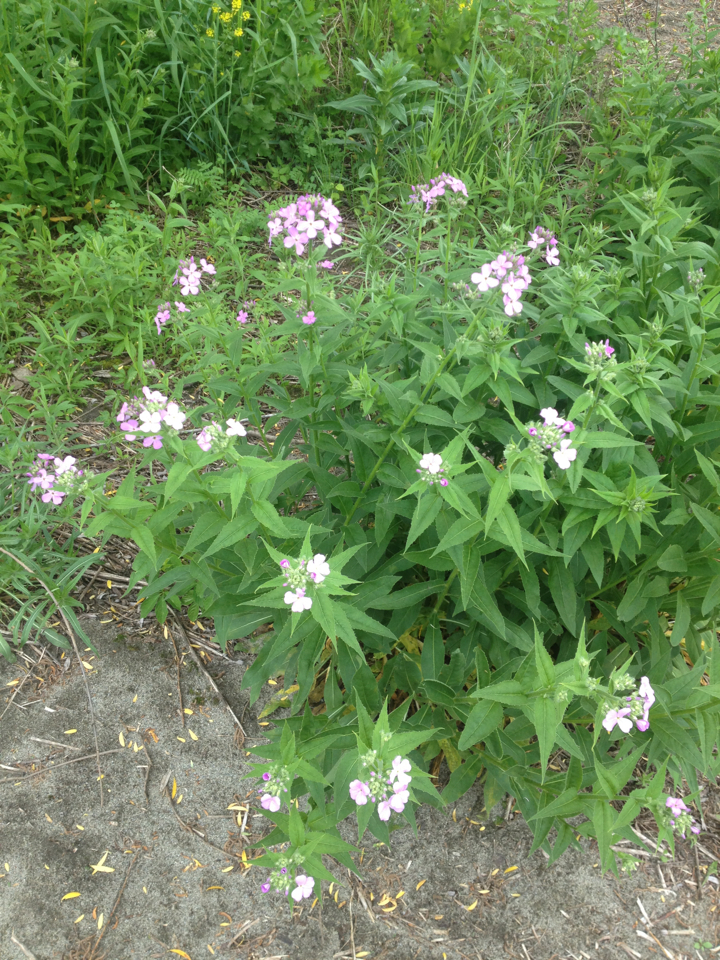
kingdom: Plantae
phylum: Tracheophyta
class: Magnoliopsida
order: Brassicales
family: Brassicaceae
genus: Hesperis
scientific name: Hesperis matronalis
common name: Dame's-violet
